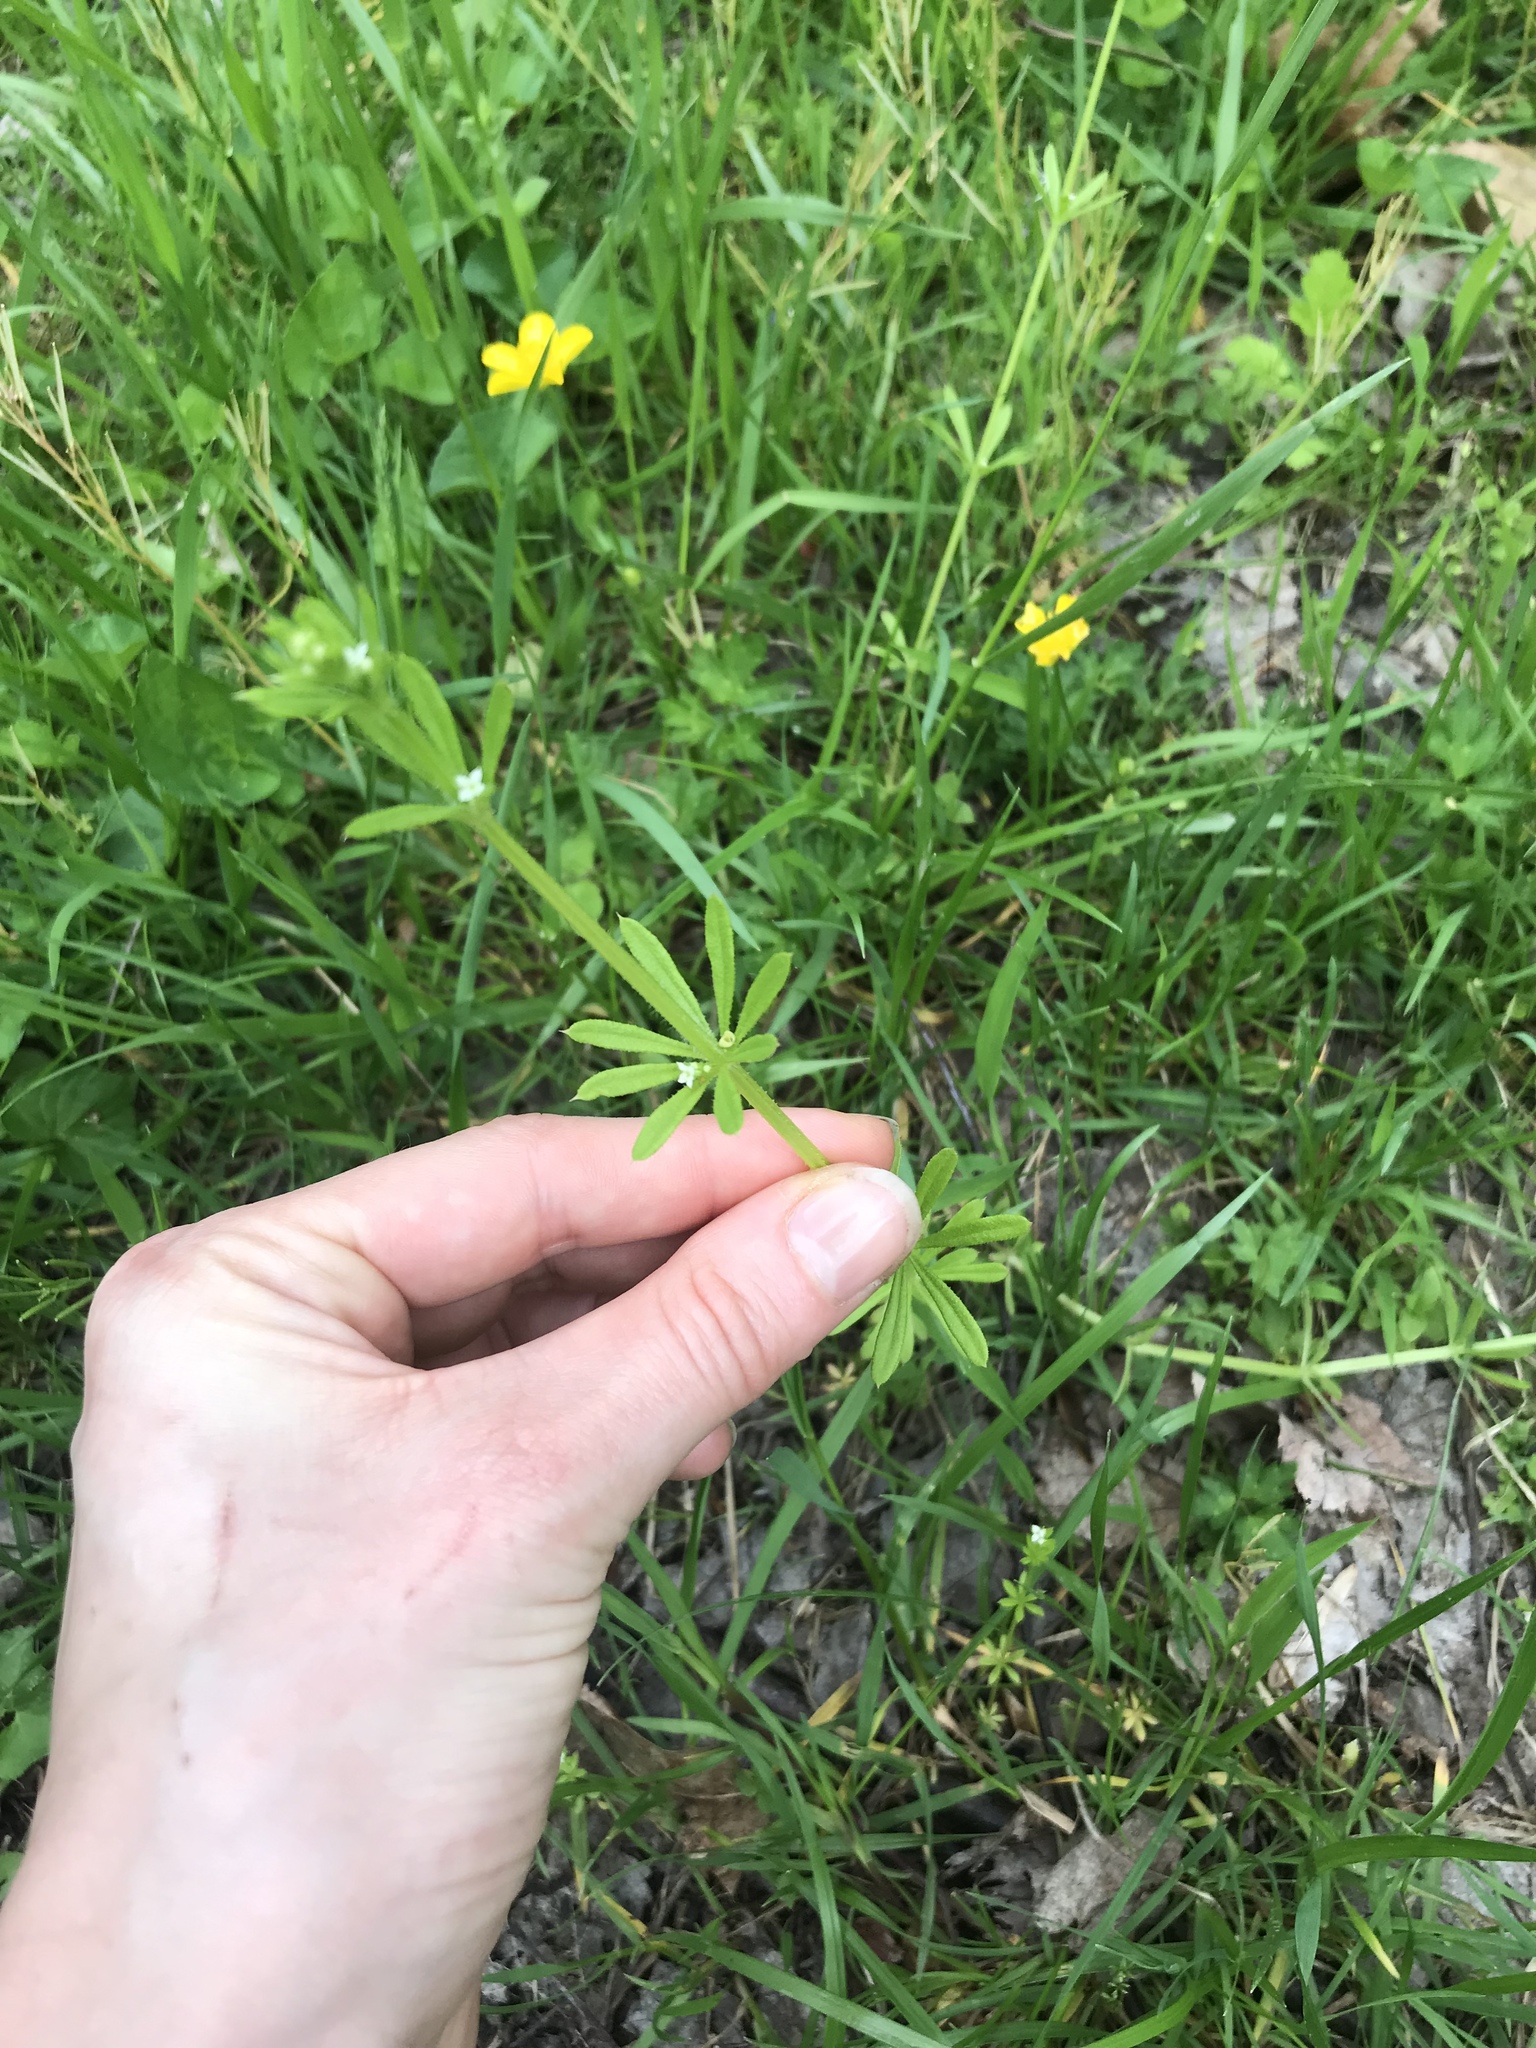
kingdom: Plantae
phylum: Tracheophyta
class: Magnoliopsida
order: Gentianales
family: Rubiaceae
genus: Galium
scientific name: Galium aparine
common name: Cleavers
